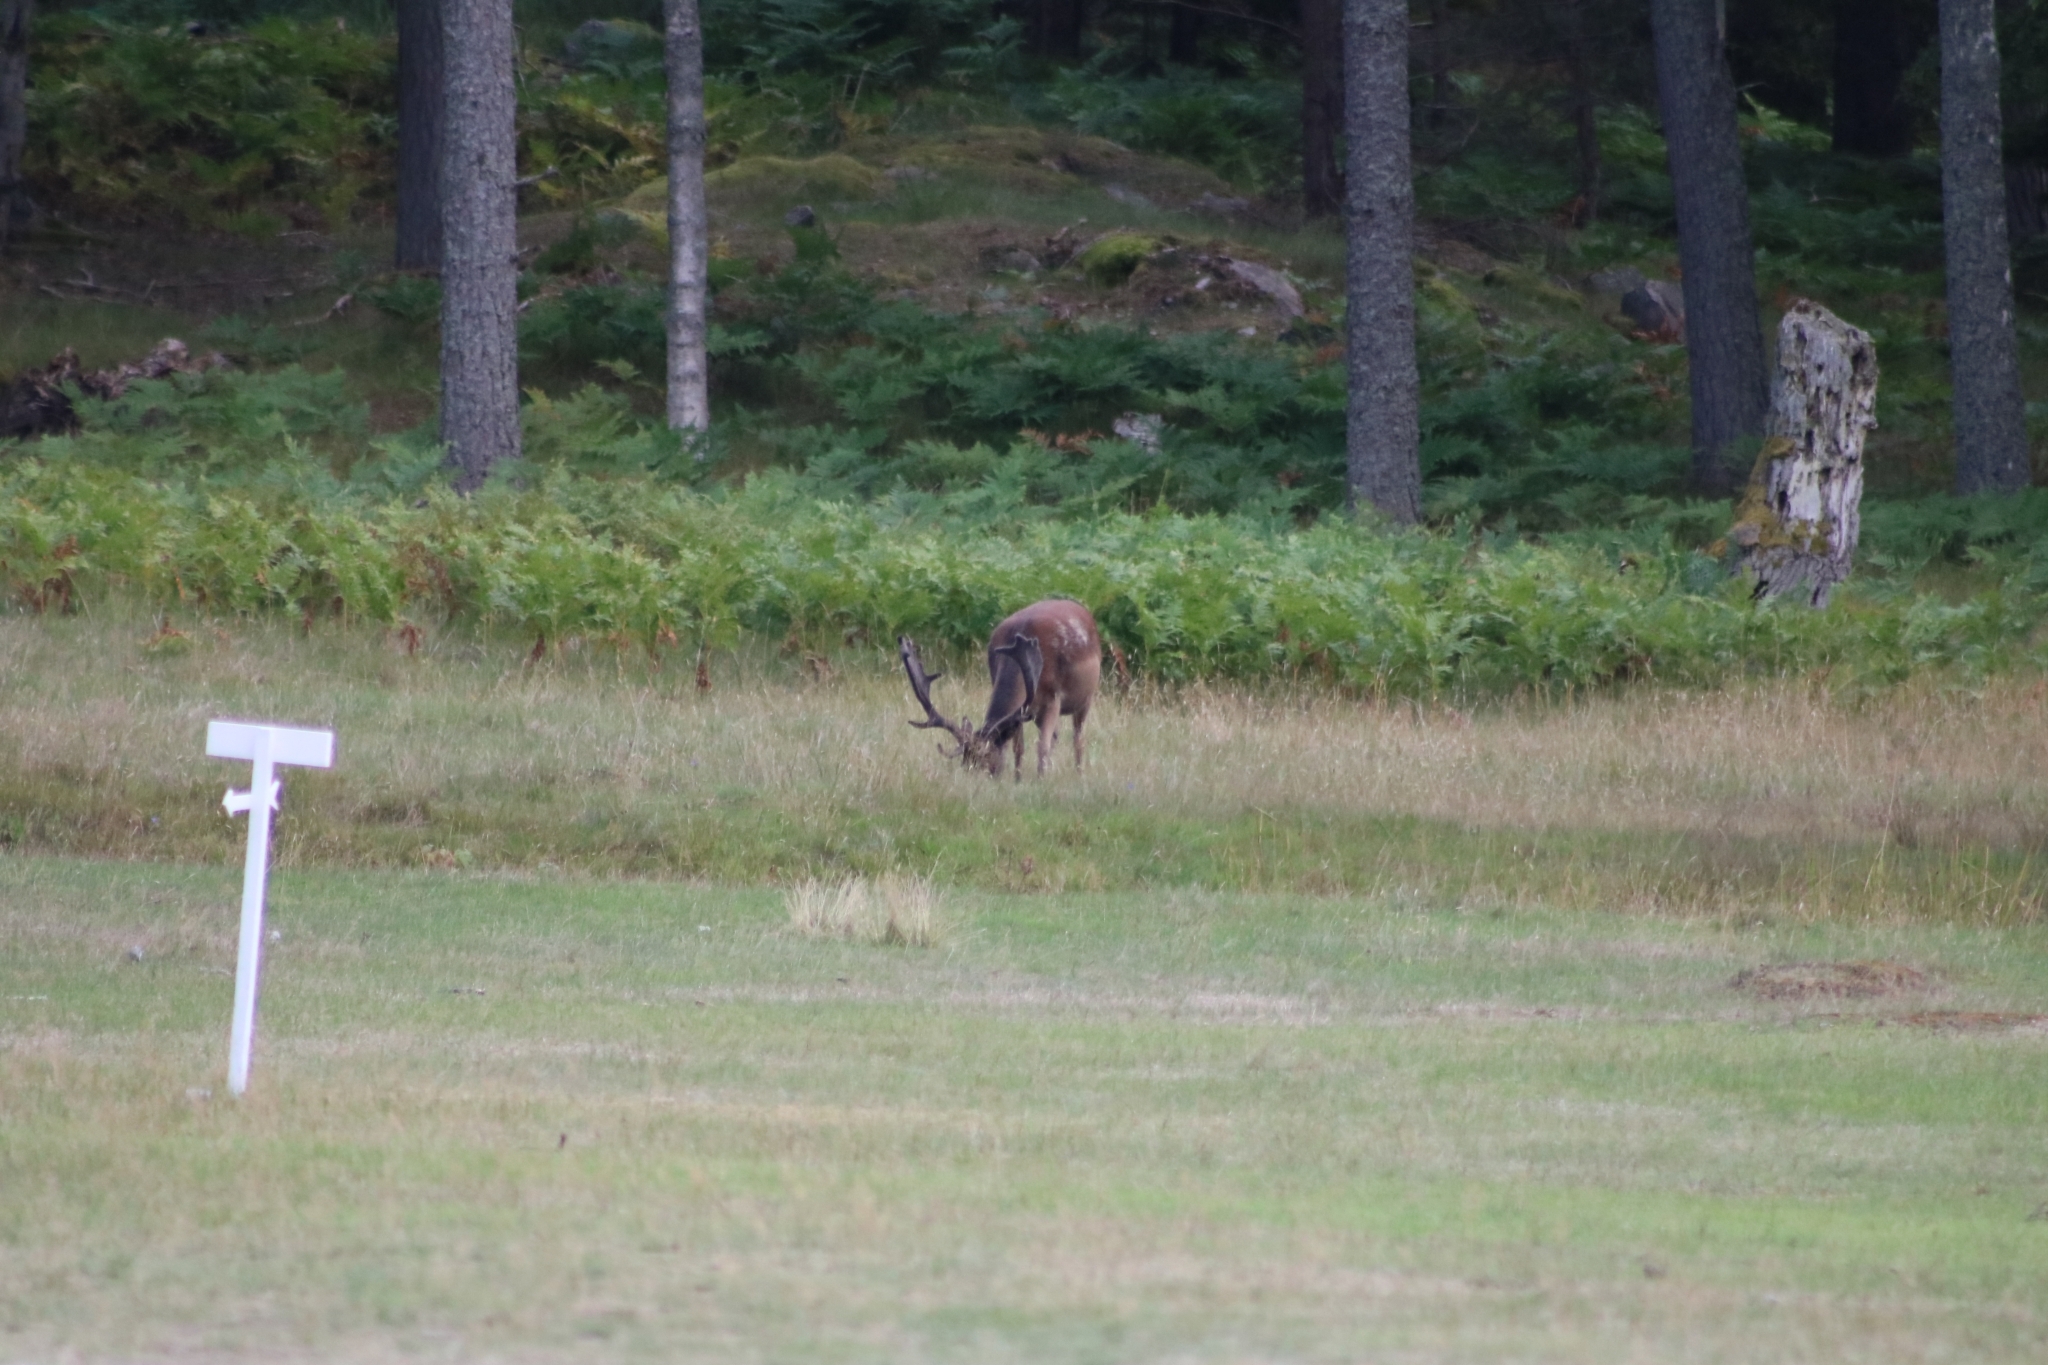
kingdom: Animalia
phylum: Chordata
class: Mammalia
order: Artiodactyla
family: Cervidae
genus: Dama
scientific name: Dama dama
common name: Fallow deer
